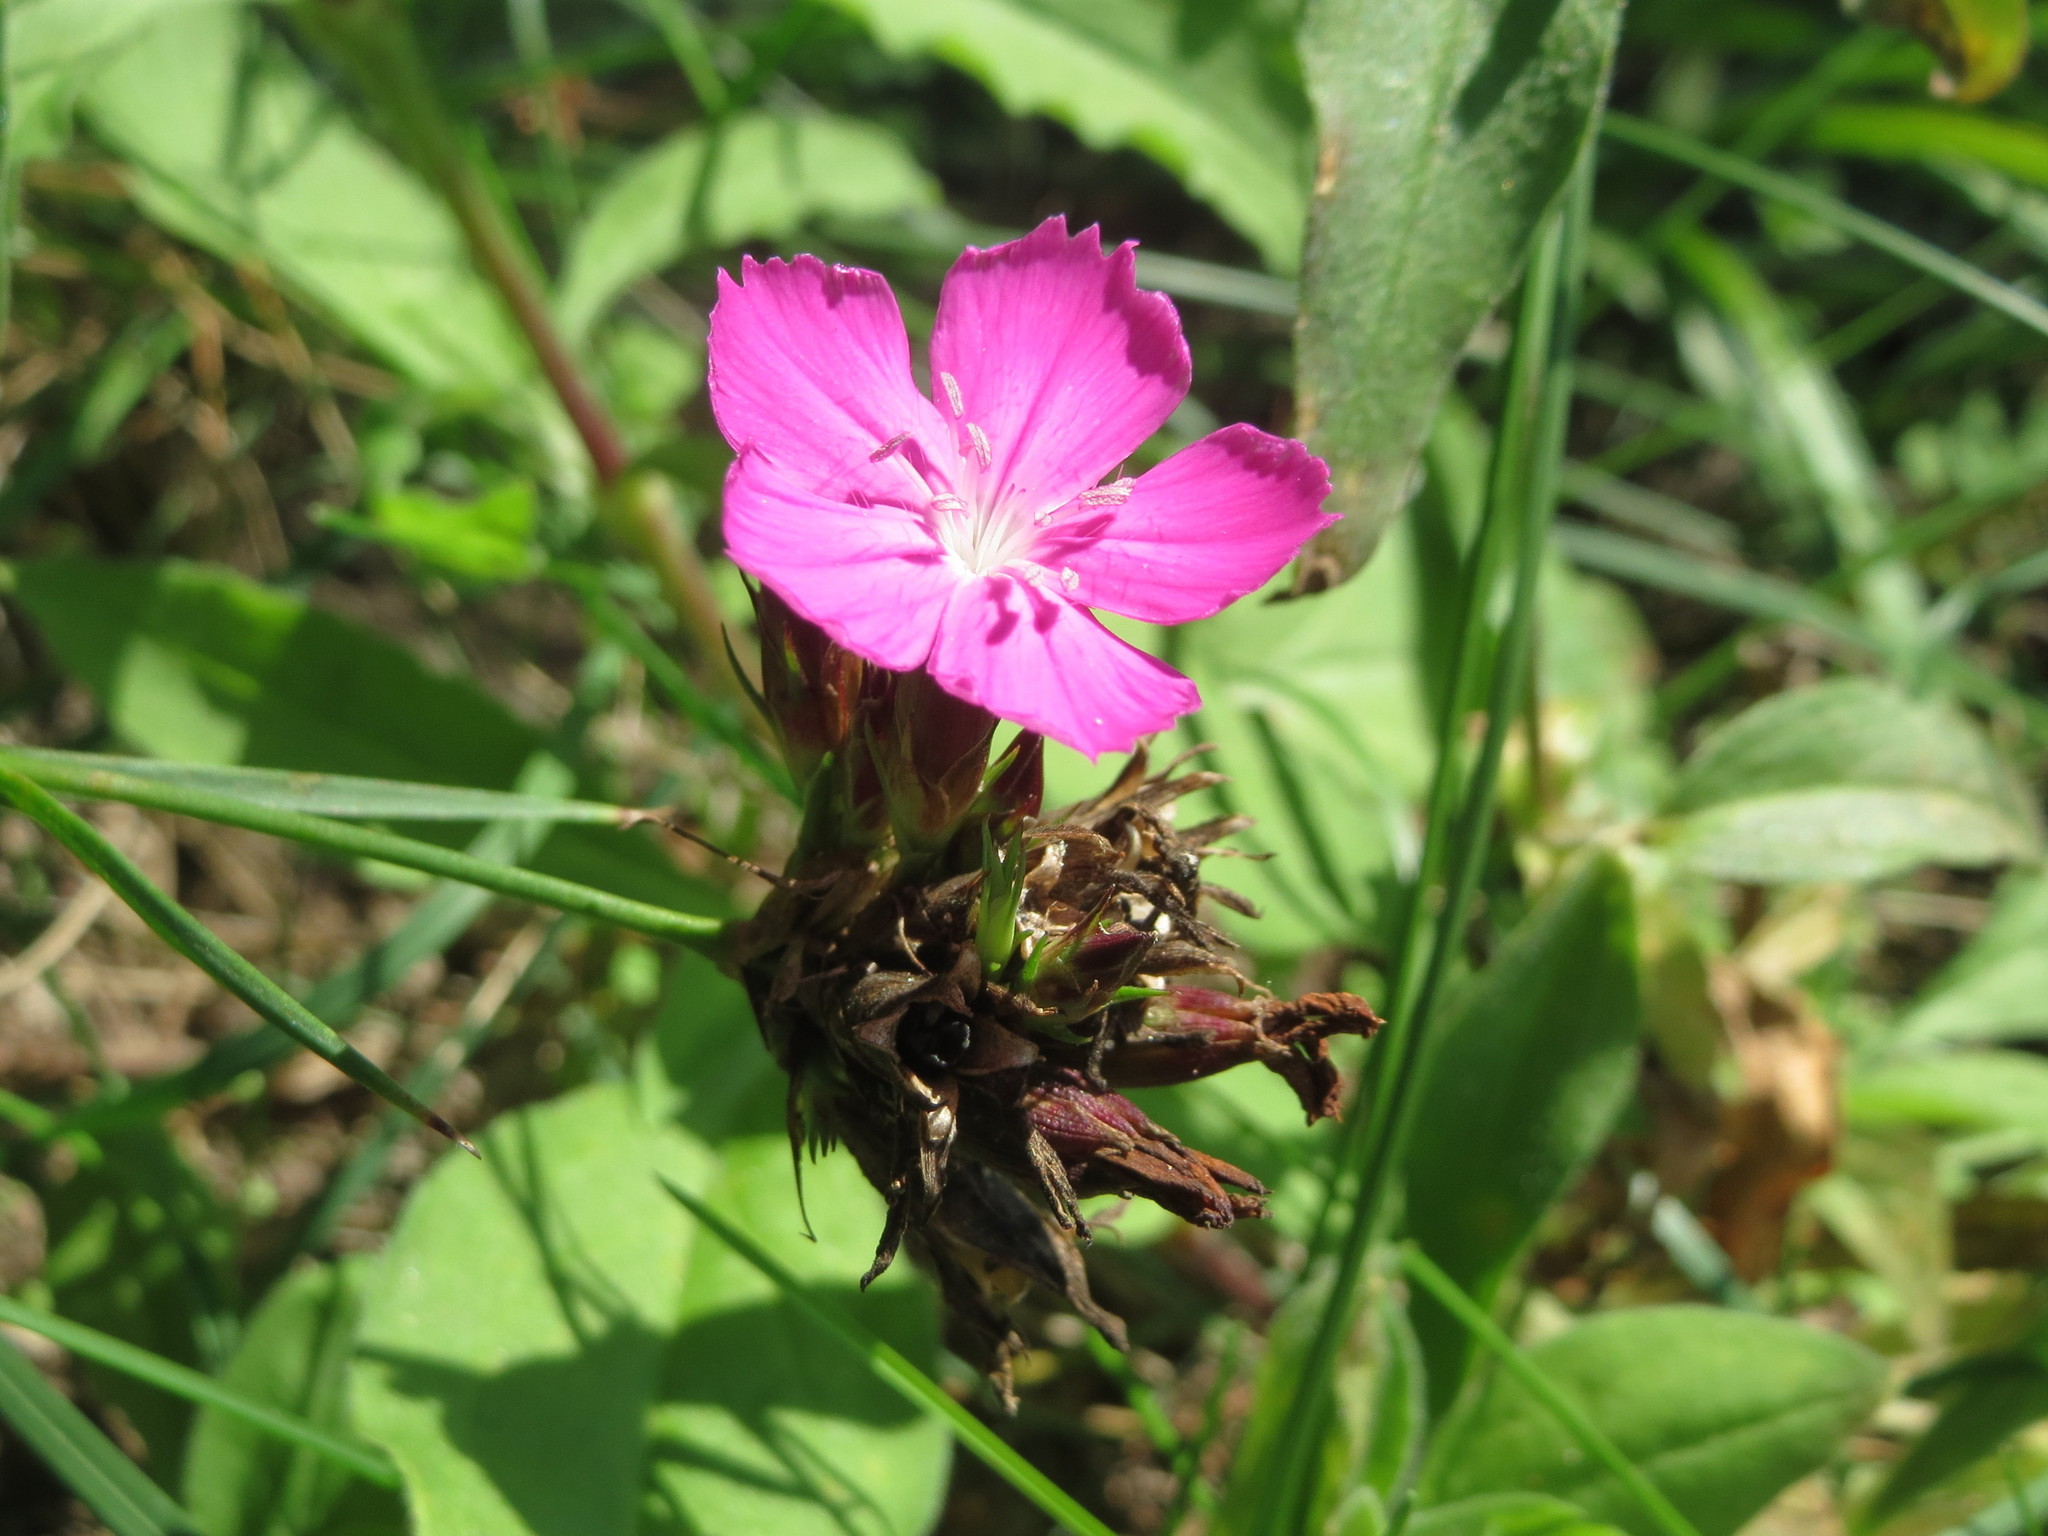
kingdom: Plantae
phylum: Tracheophyta
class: Magnoliopsida
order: Caryophyllales
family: Caryophyllaceae
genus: Dianthus
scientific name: Dianthus carthusianorum
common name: Carthusian pink
